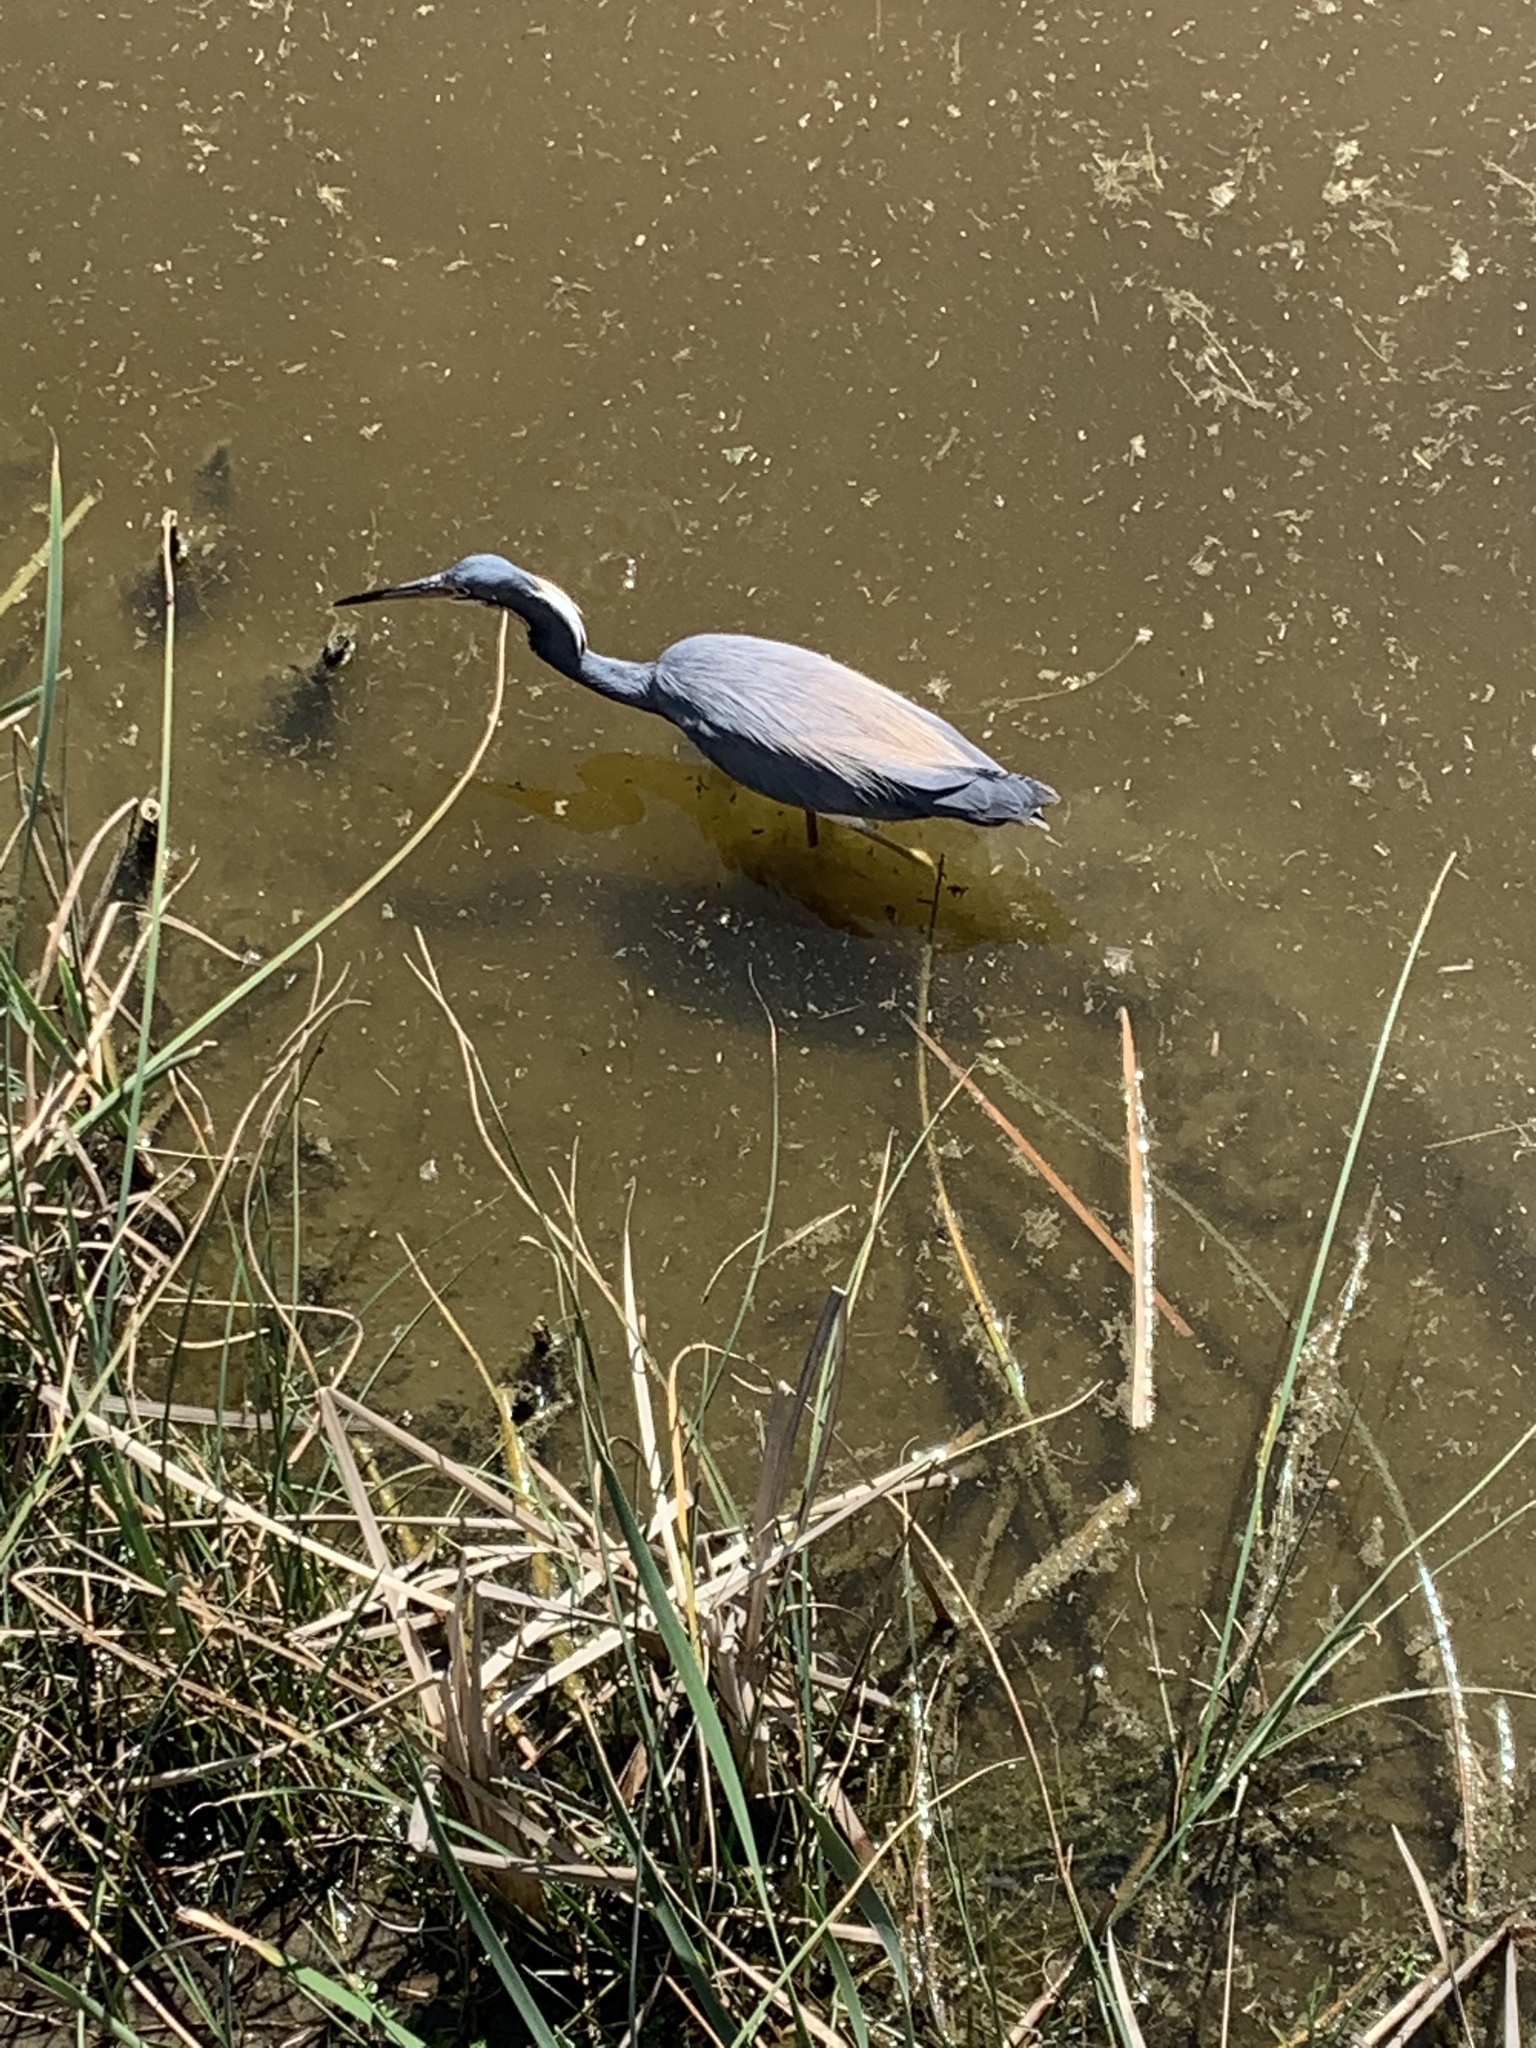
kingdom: Animalia
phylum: Chordata
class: Aves
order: Pelecaniformes
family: Ardeidae
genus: Egretta
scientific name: Egretta tricolor
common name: Tricolored heron
